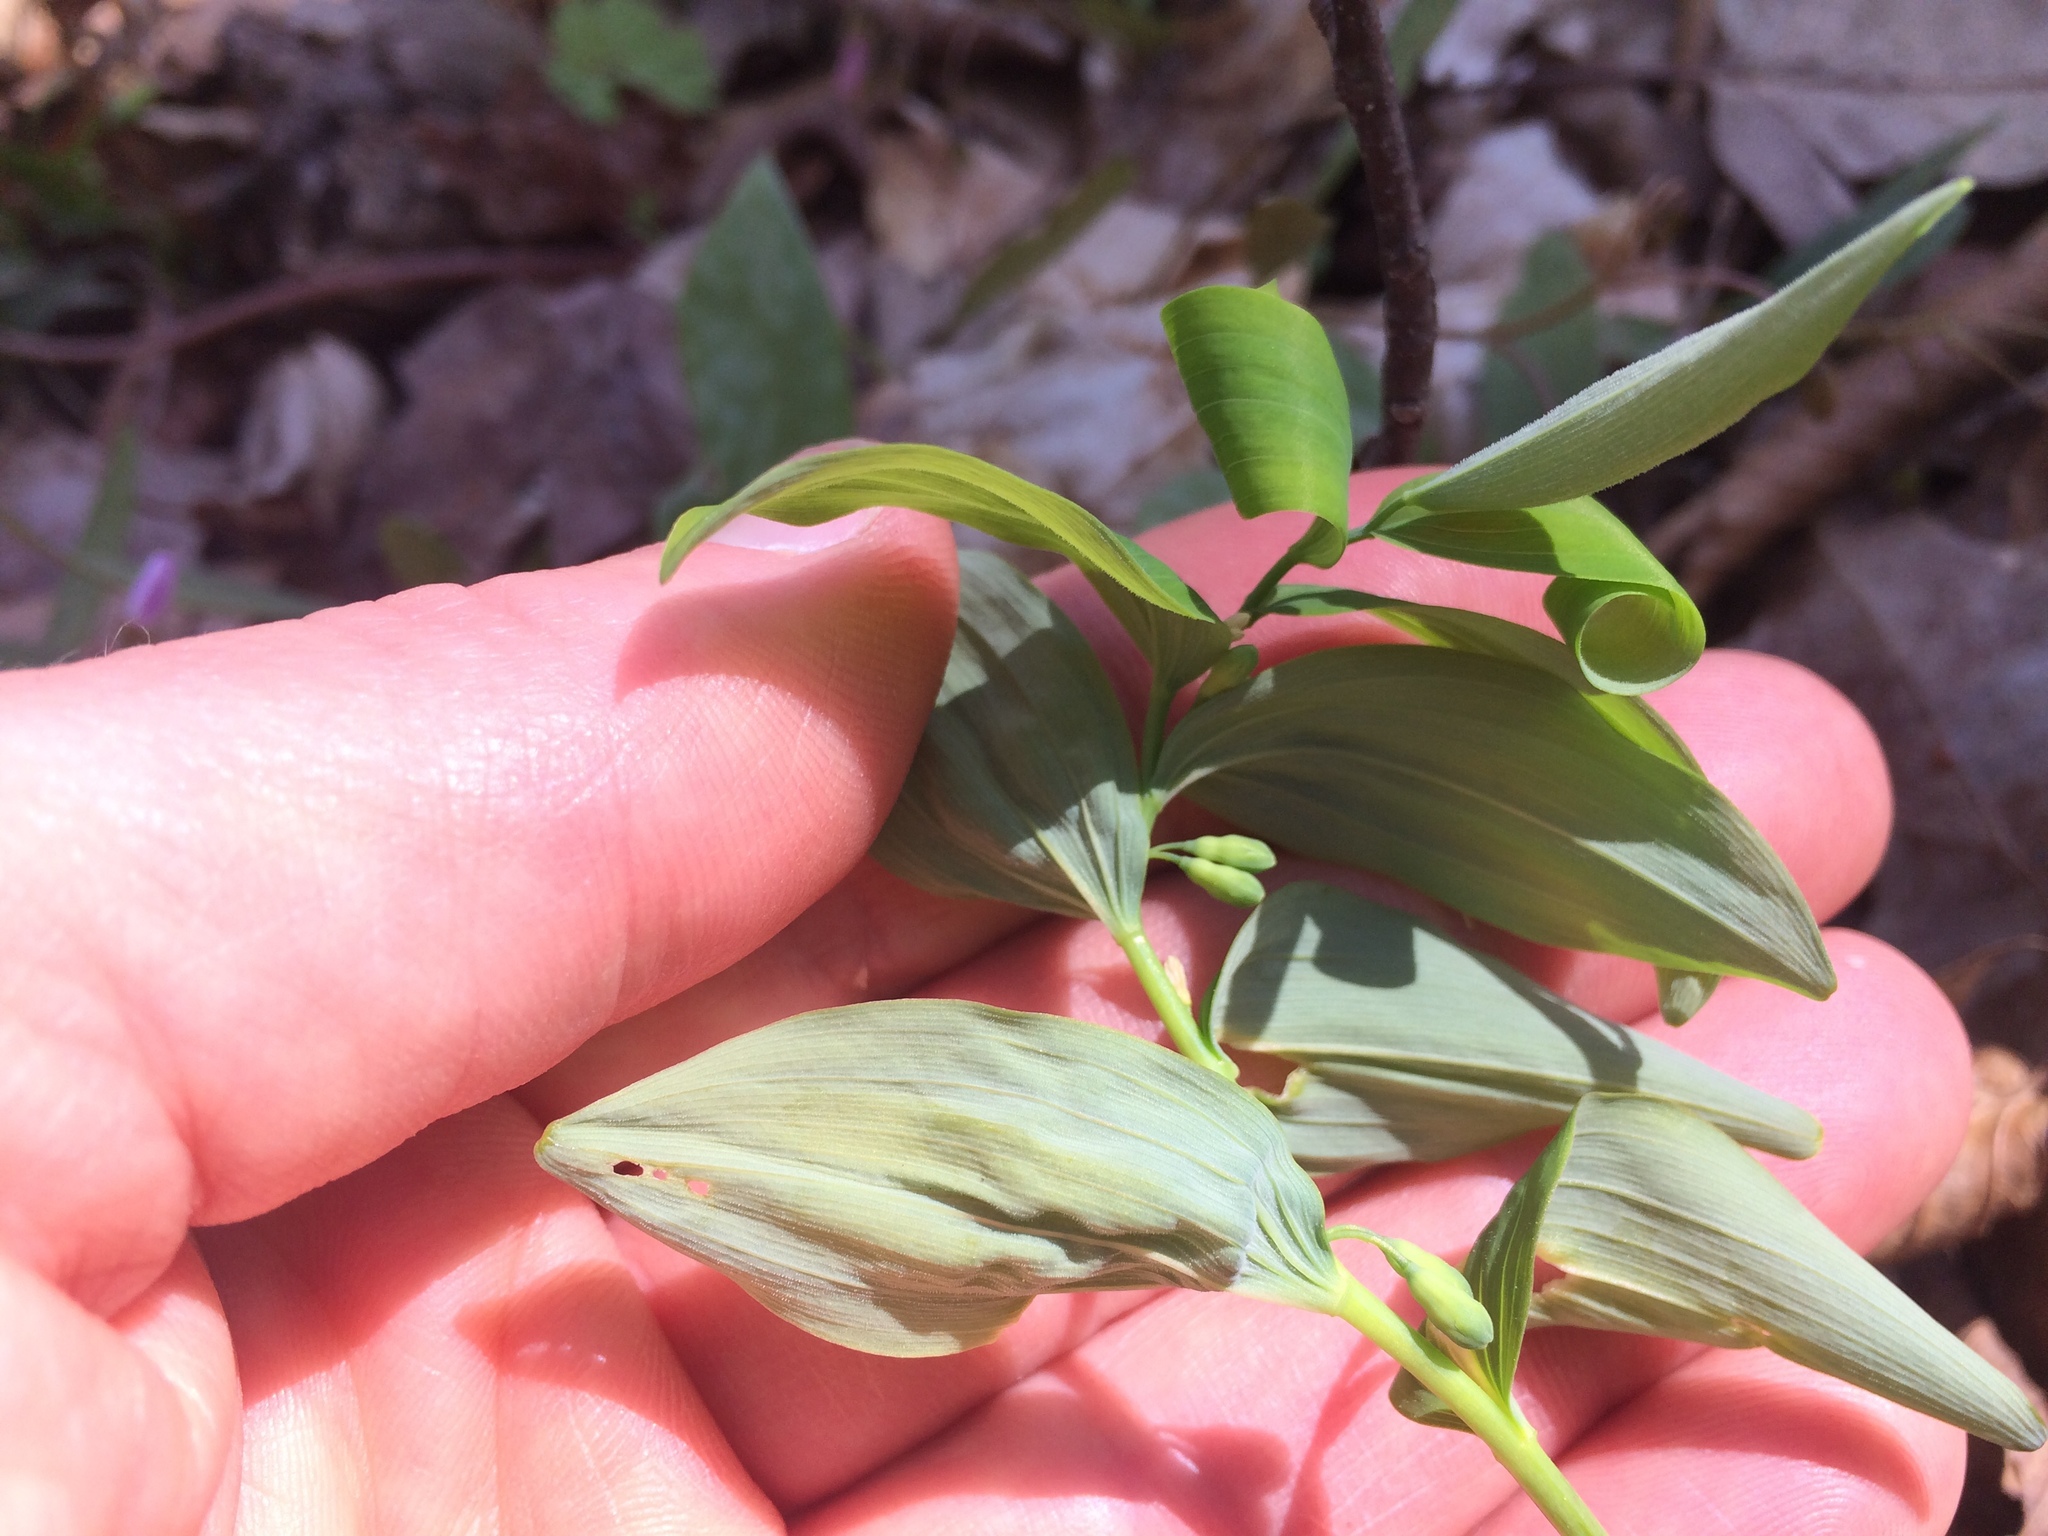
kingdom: Plantae
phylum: Tracheophyta
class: Liliopsida
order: Asparagales
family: Asparagaceae
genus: Polygonatum
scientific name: Polygonatum pubescens
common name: Downy solomon's seal
